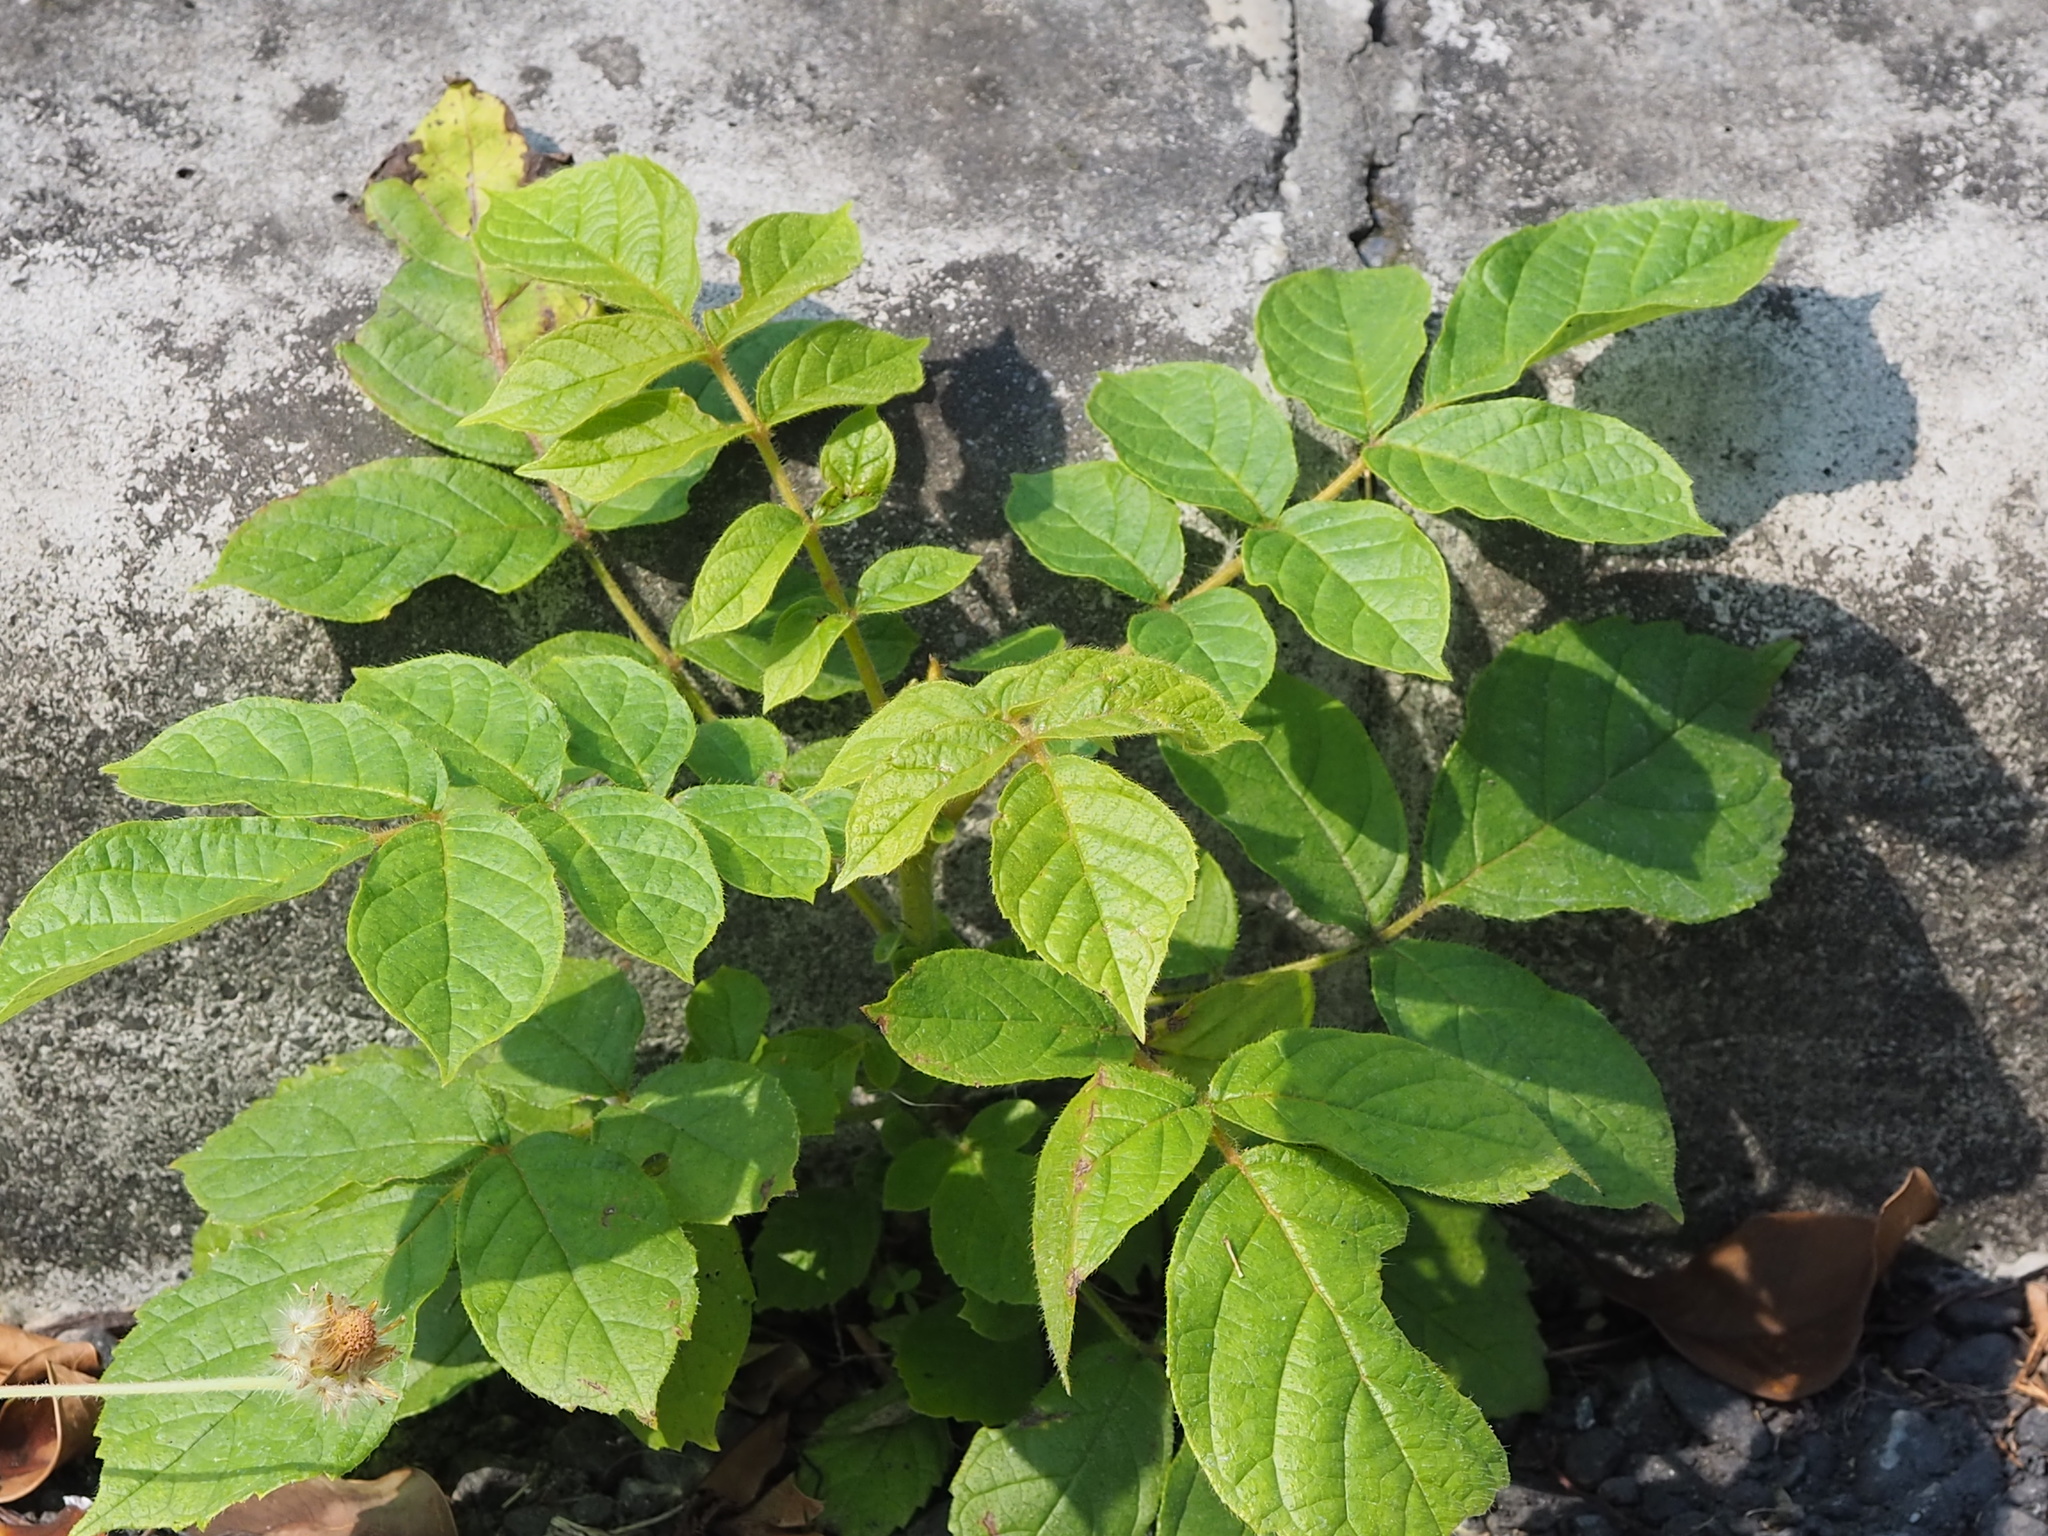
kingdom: Plantae
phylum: Tracheophyta
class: Magnoliopsida
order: Lamiales
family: Bignoniaceae
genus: Spathodea
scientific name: Spathodea campanulata
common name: African tuliptree
